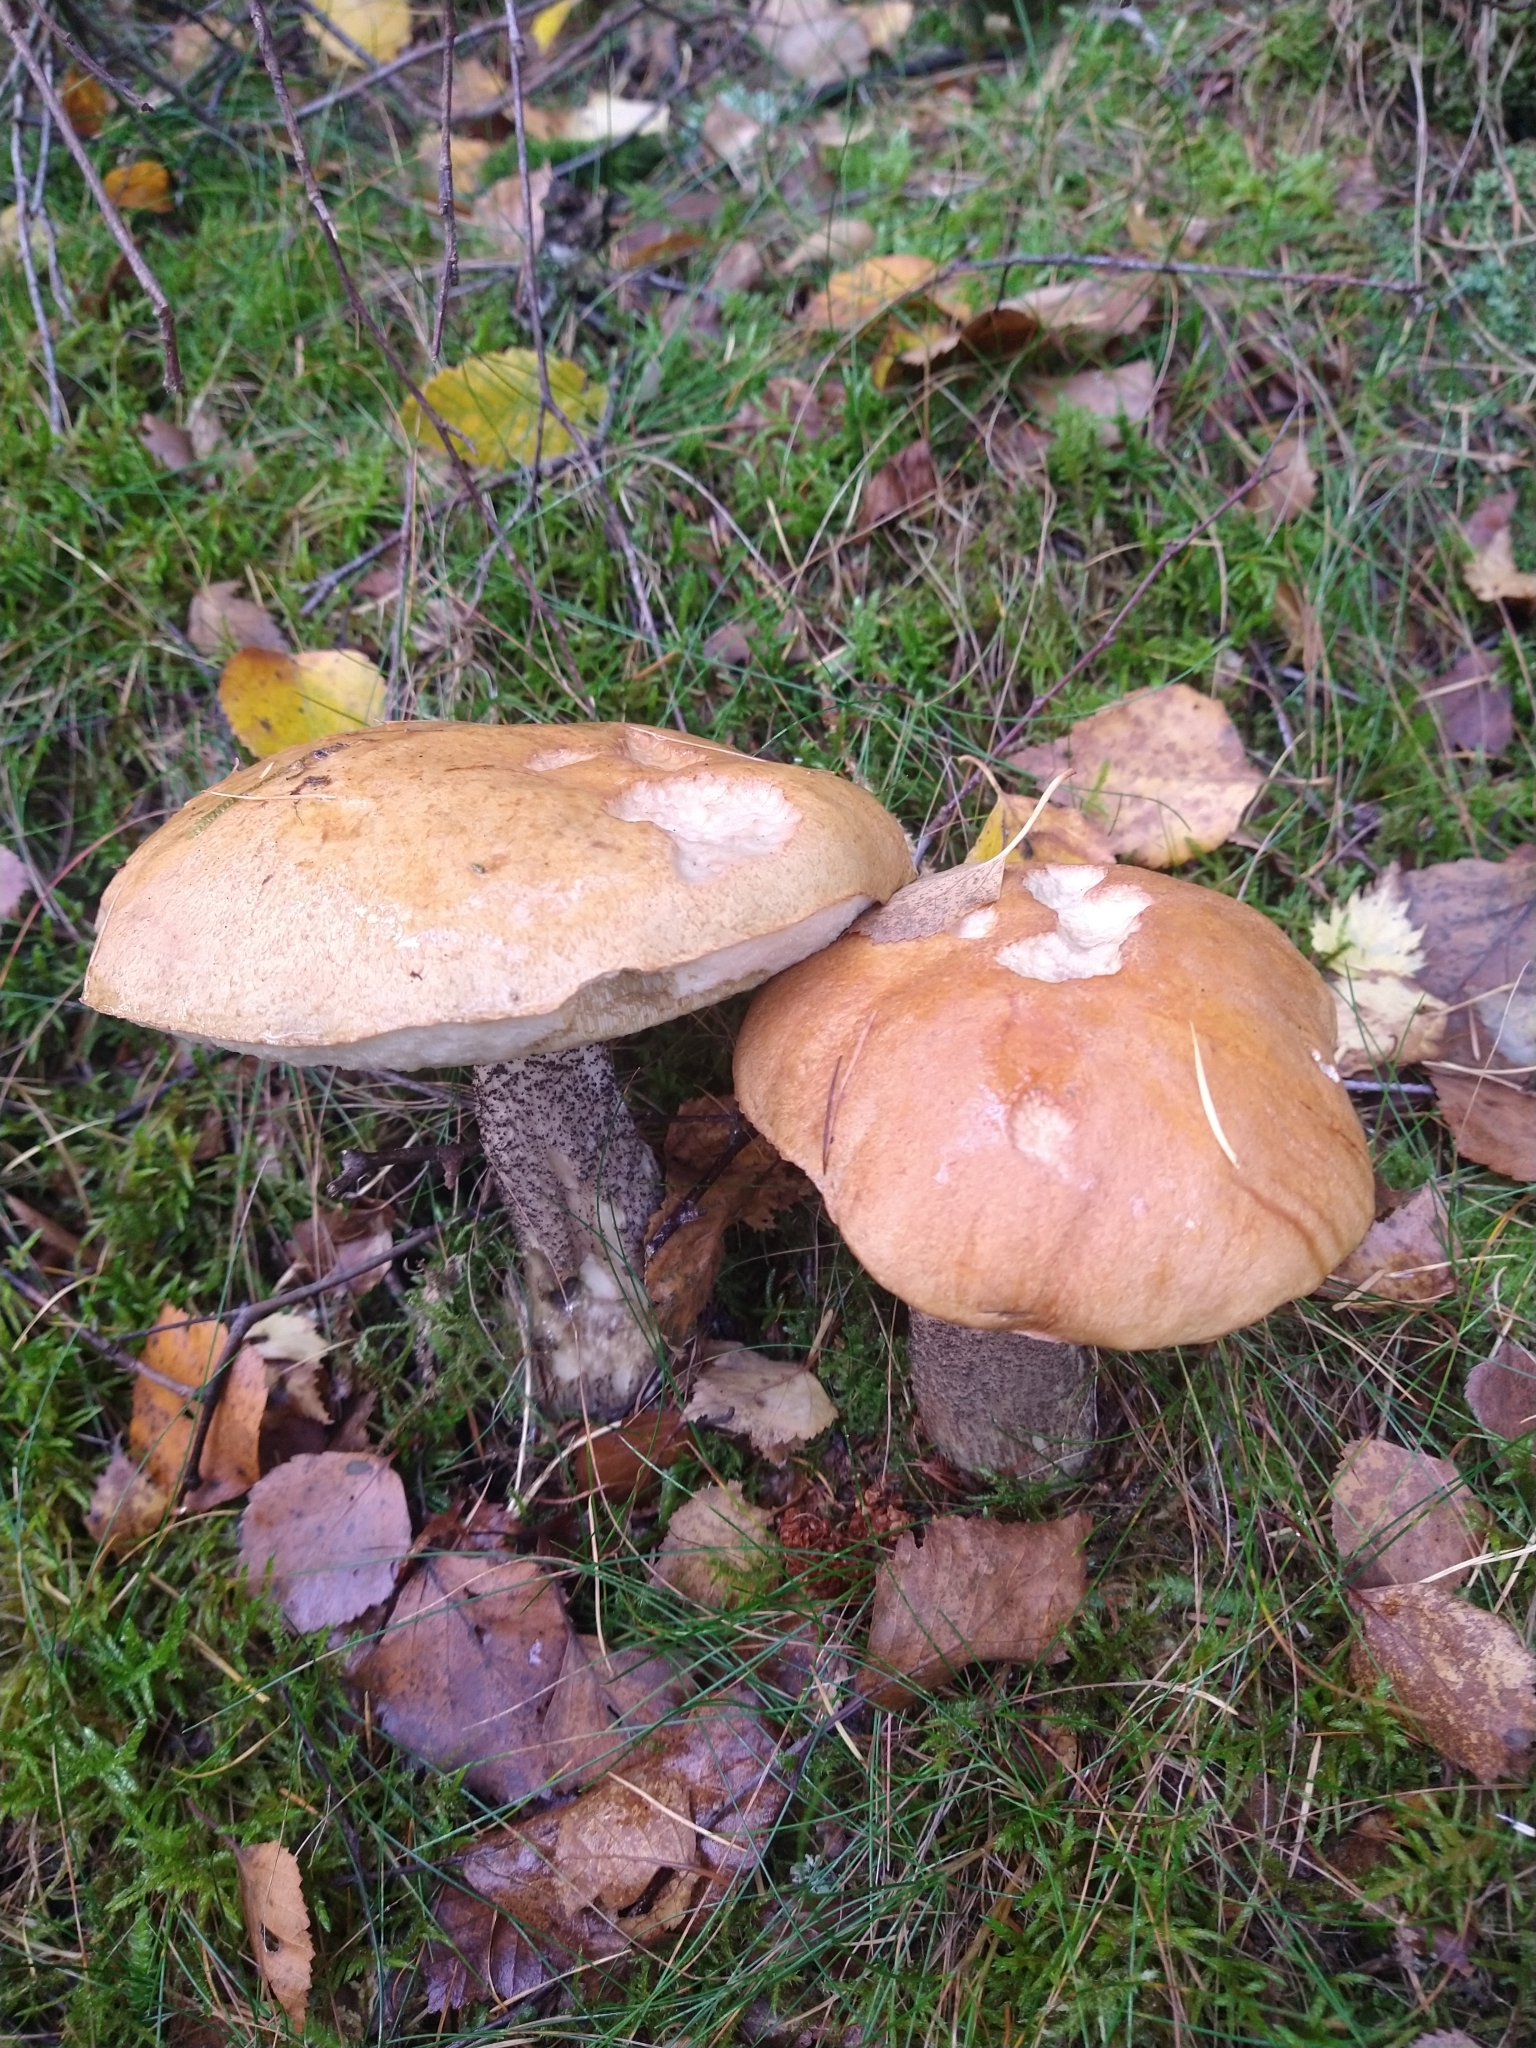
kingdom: Fungi
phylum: Basidiomycota
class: Agaricomycetes
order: Boletales
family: Boletaceae
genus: Leccinum
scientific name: Leccinum versipelle
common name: Orange birch bolete
